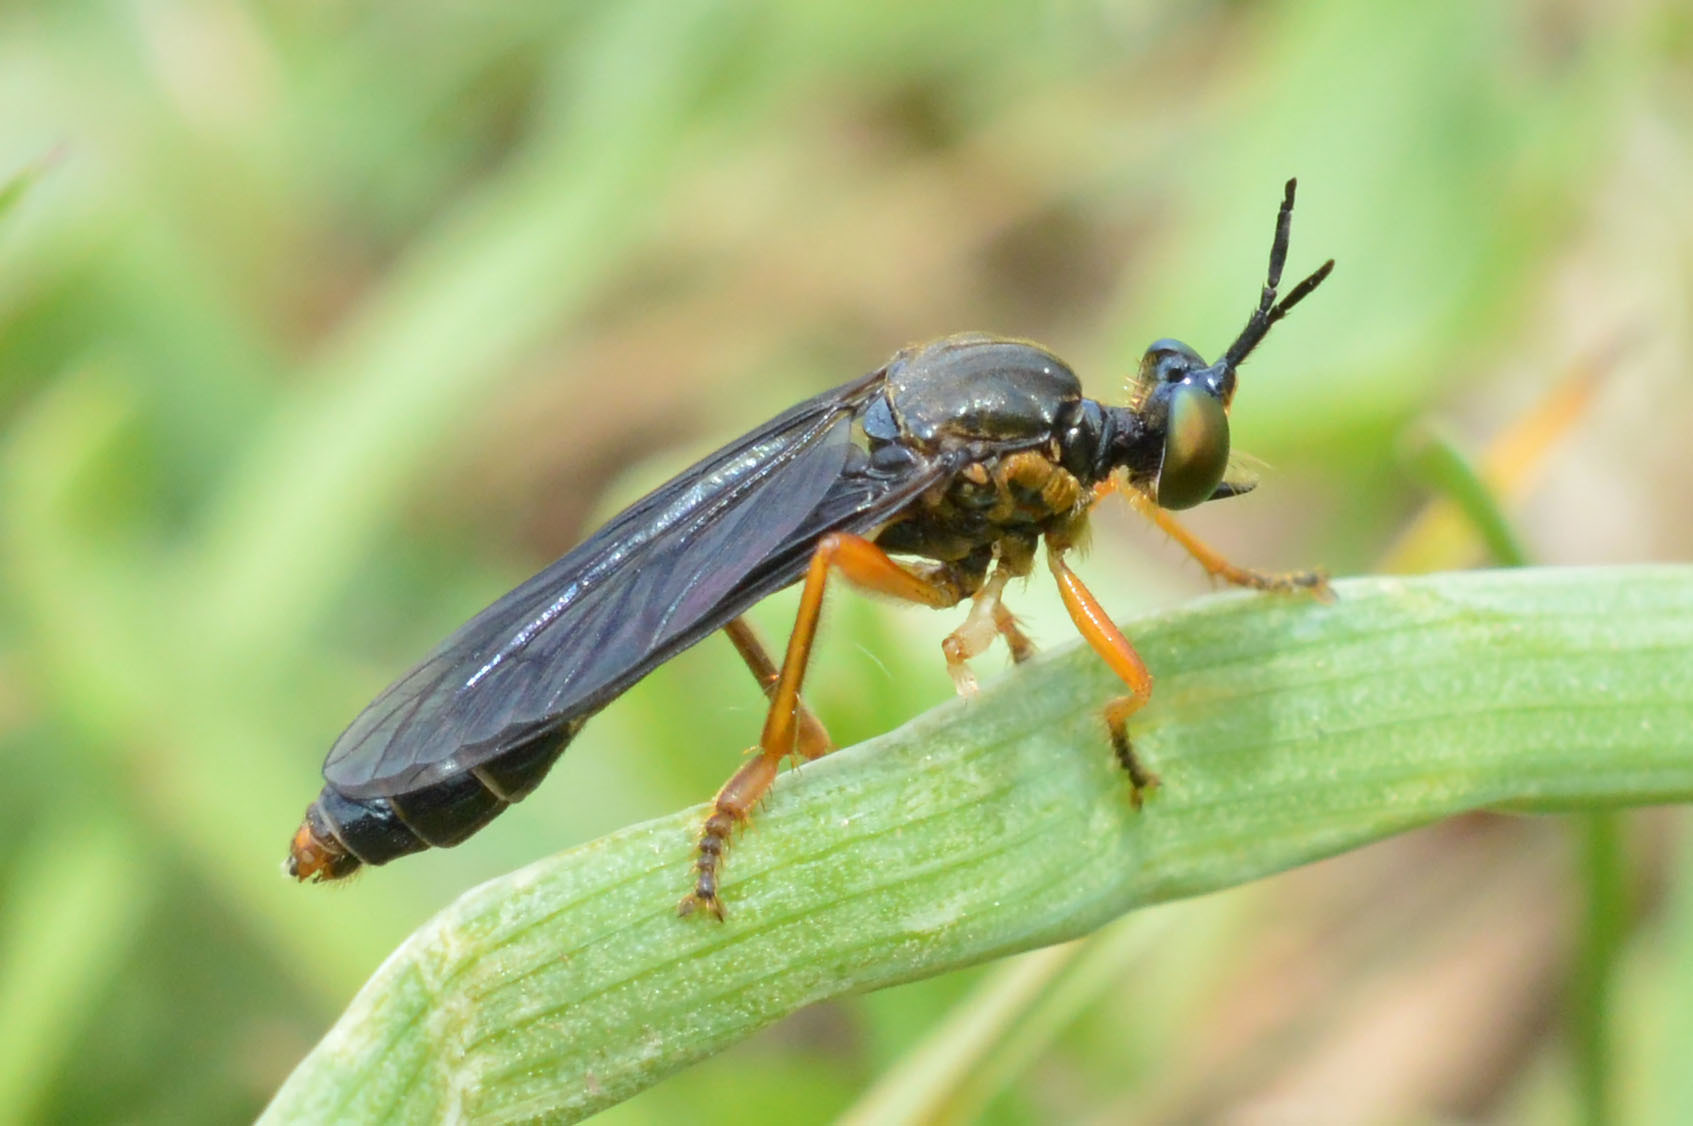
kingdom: Animalia
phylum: Arthropoda
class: Insecta
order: Diptera
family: Asilidae
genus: Dioctria
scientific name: Dioctria flavipennis
